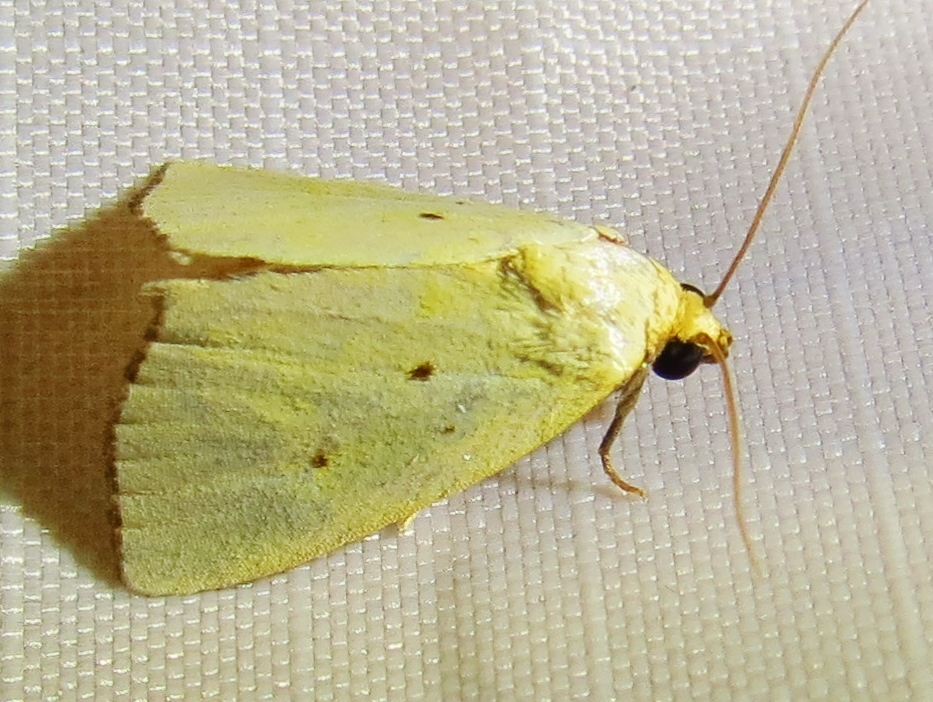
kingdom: Animalia
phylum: Arthropoda
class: Insecta
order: Lepidoptera
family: Noctuidae
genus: Marimatha
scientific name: Marimatha nigrofimbria
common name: Black-bordered lemon moth
